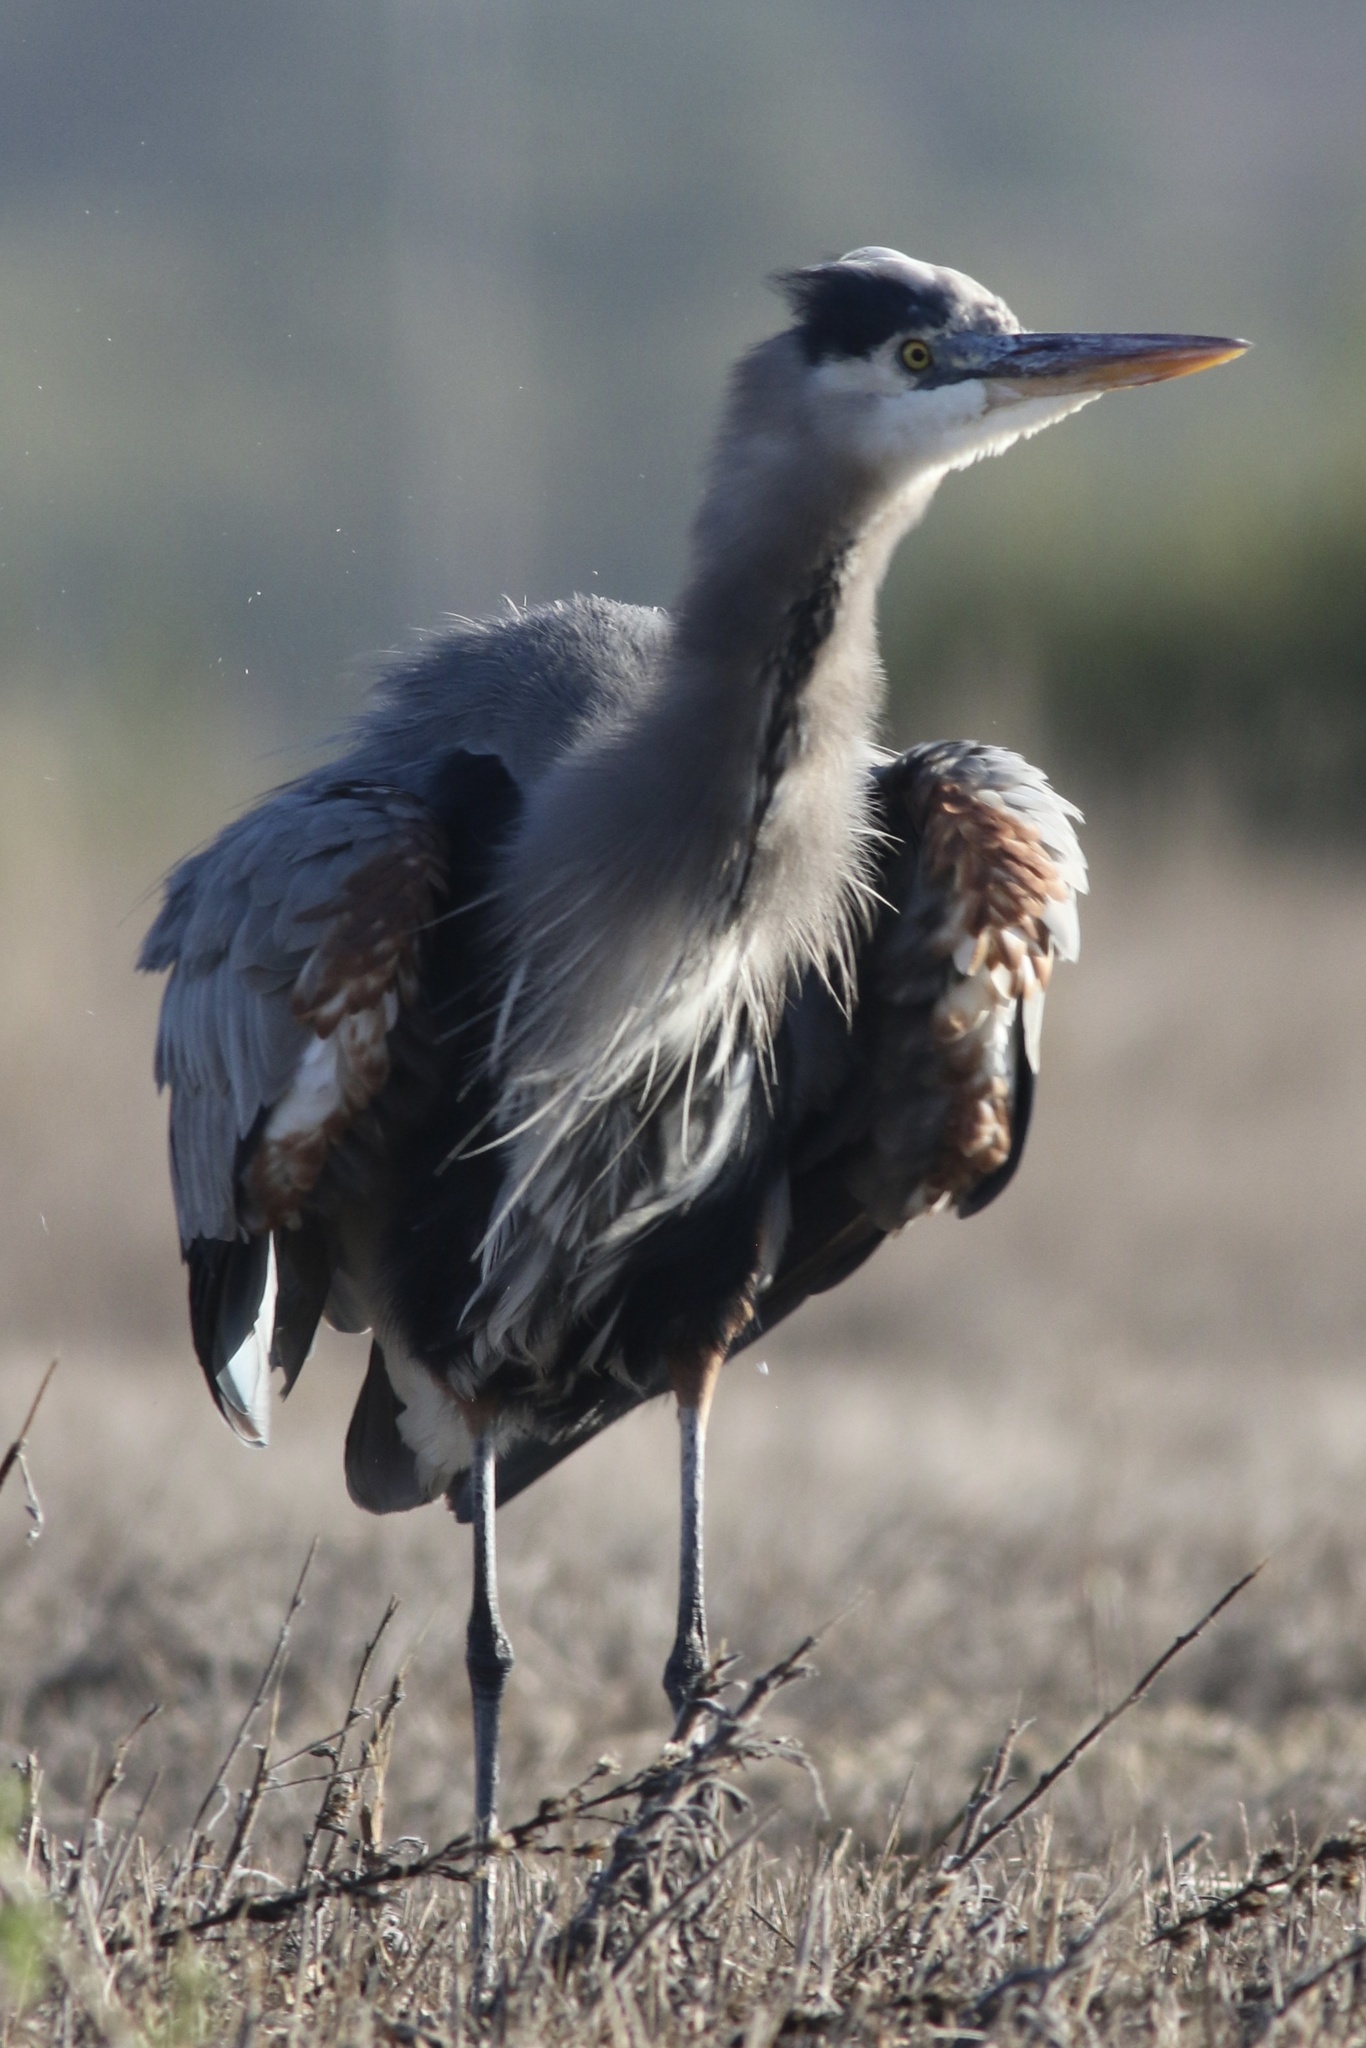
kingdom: Animalia
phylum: Chordata
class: Aves
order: Pelecaniformes
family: Ardeidae
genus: Ardea
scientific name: Ardea herodias
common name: Great blue heron
